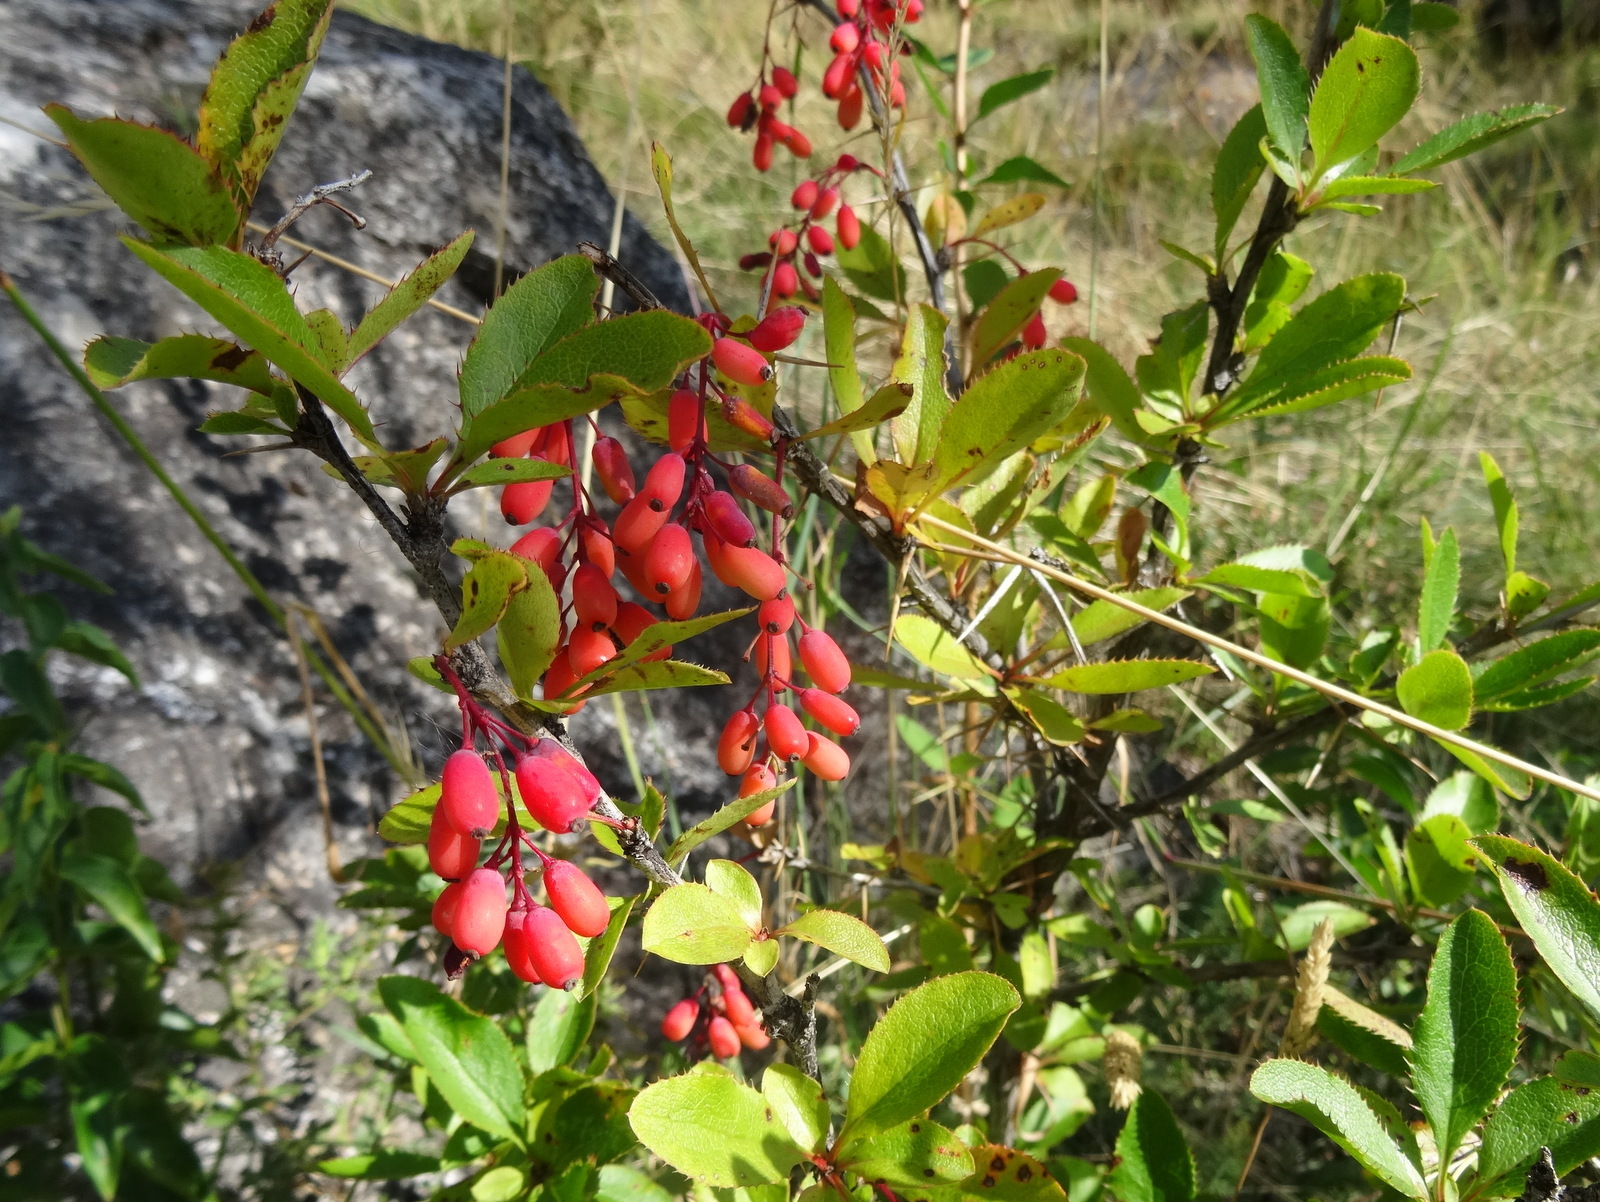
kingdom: Plantae
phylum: Tracheophyta
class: Magnoliopsida
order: Ranunculales
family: Berberidaceae
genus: Berberis
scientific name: Berberis vulgaris
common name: Barberry
